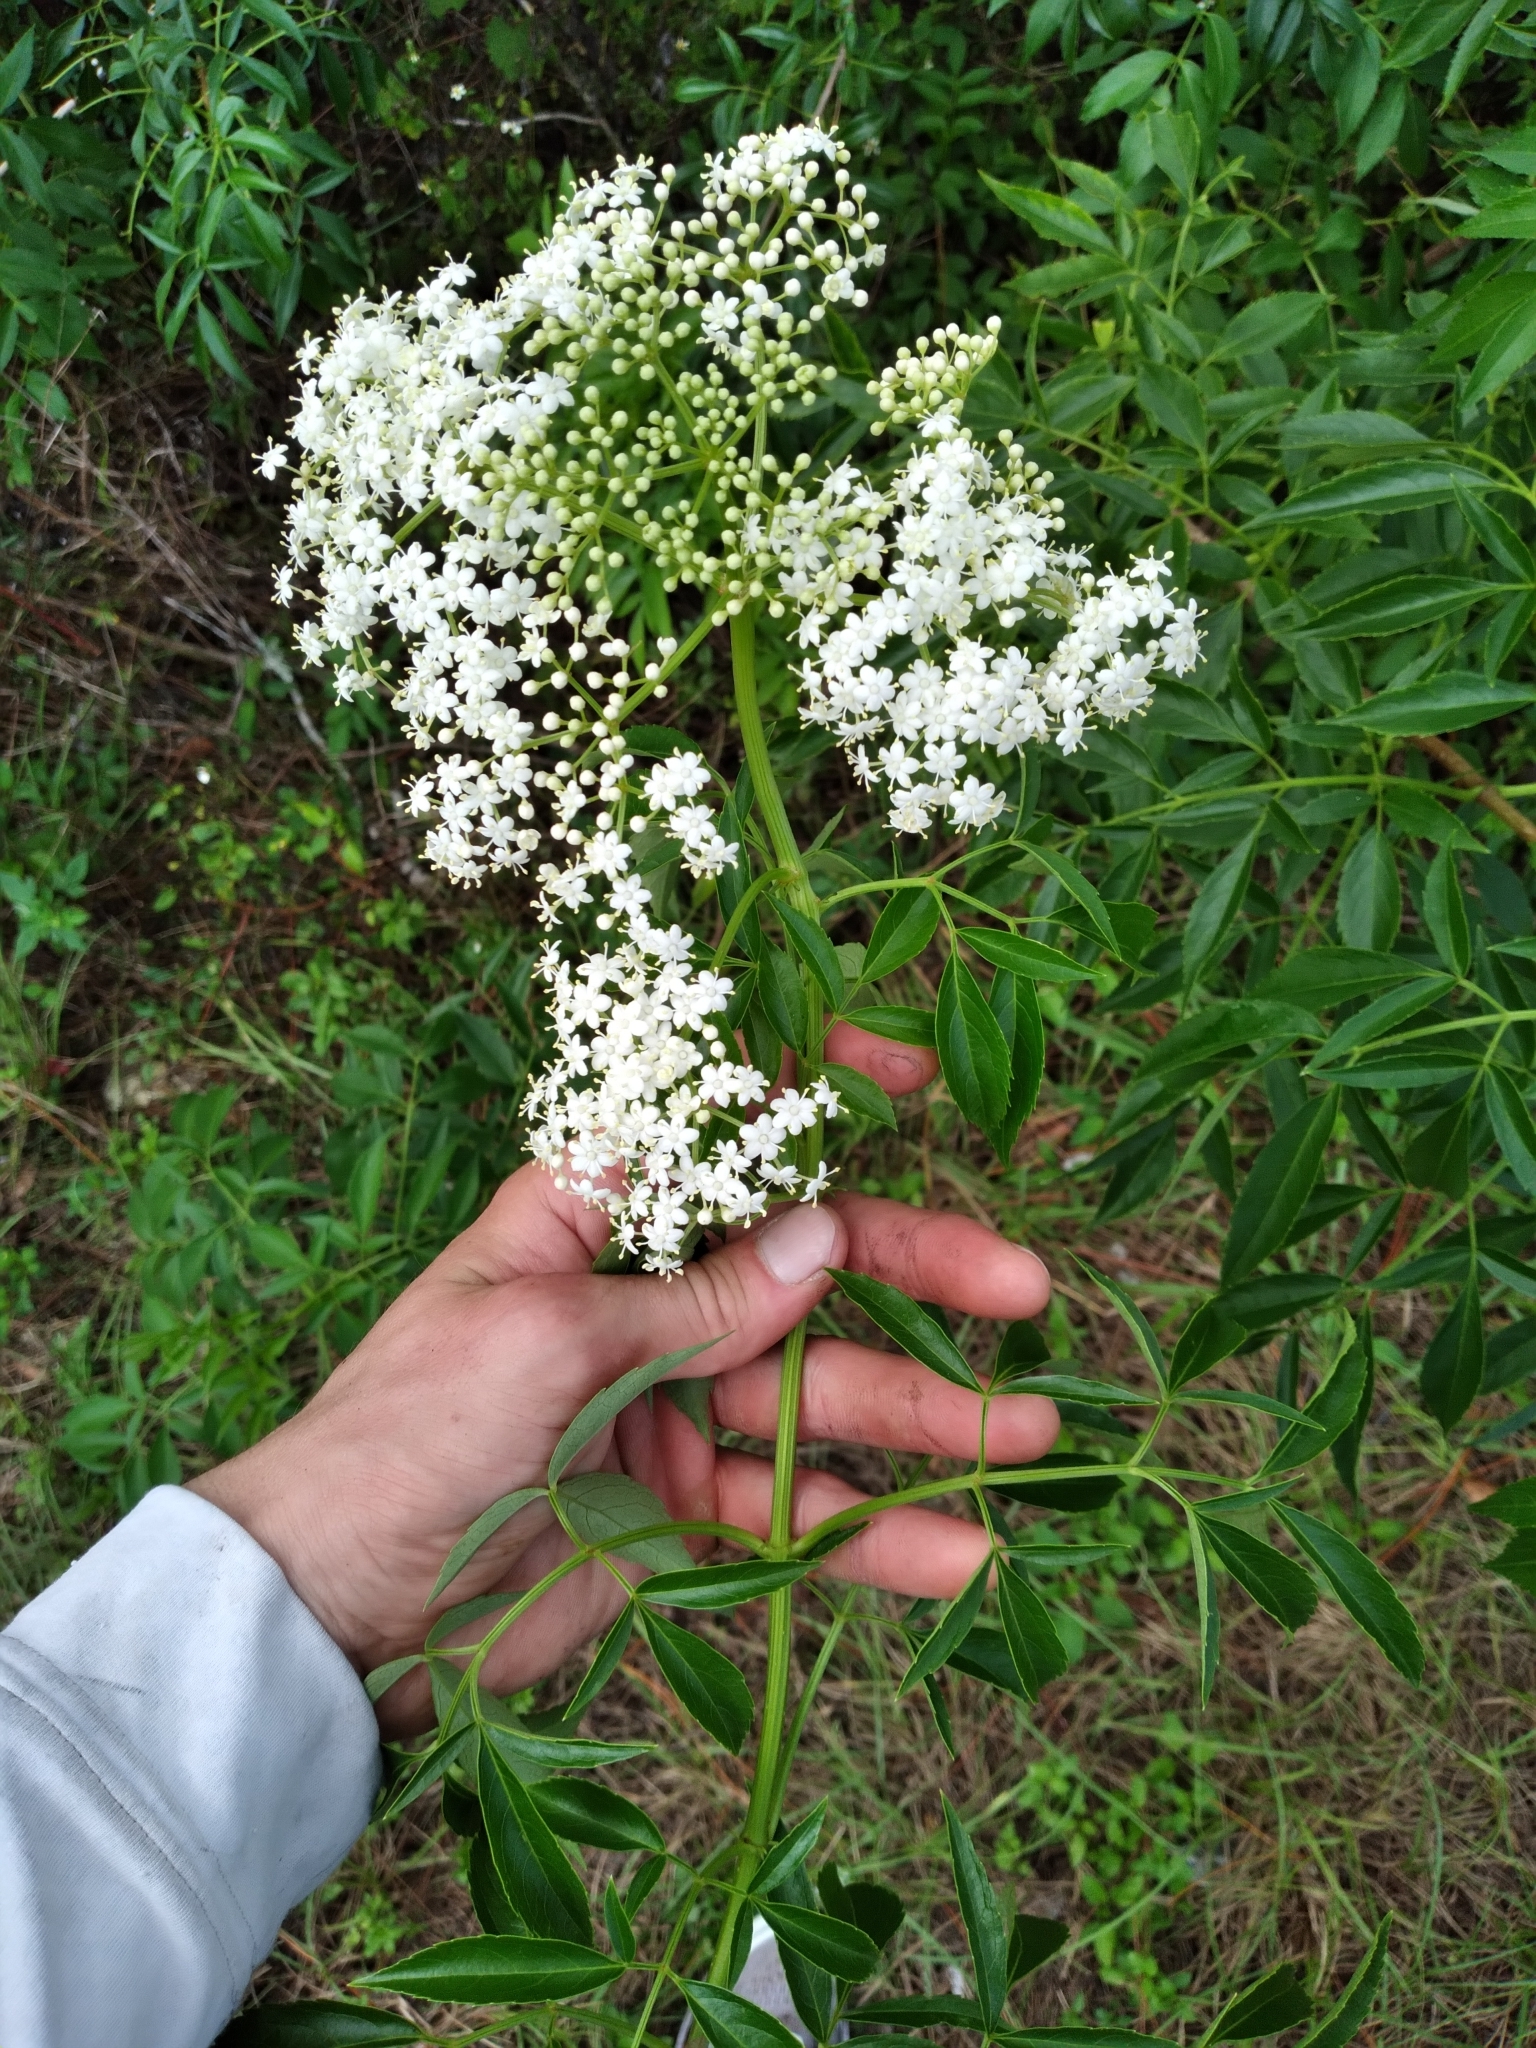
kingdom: Plantae
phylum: Tracheophyta
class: Magnoliopsida
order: Dipsacales
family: Viburnaceae
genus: Sambucus
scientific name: Sambucus canadensis
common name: American elder
